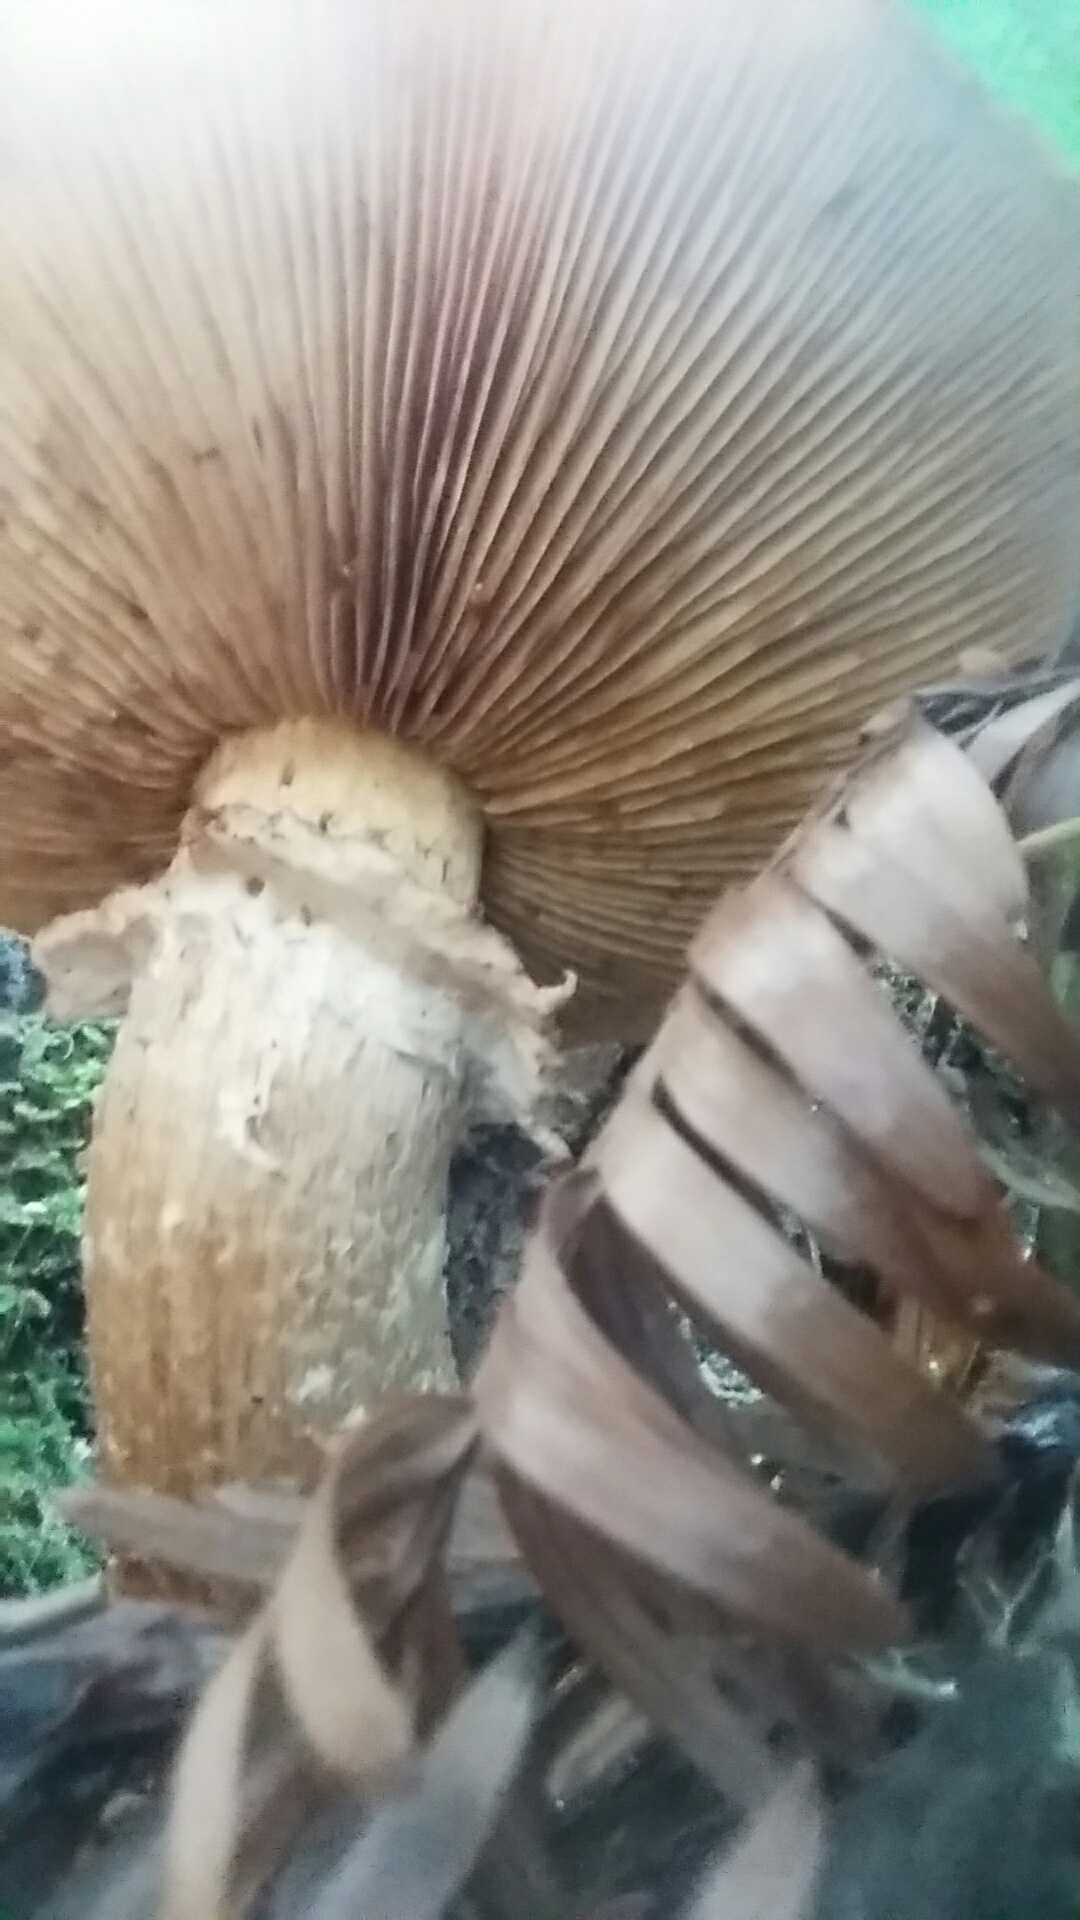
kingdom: Fungi
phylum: Basidiomycota
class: Agaricomycetes
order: Agaricales
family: Hymenogastraceae
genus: Gymnopilus
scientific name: Gymnopilus ventricosus
